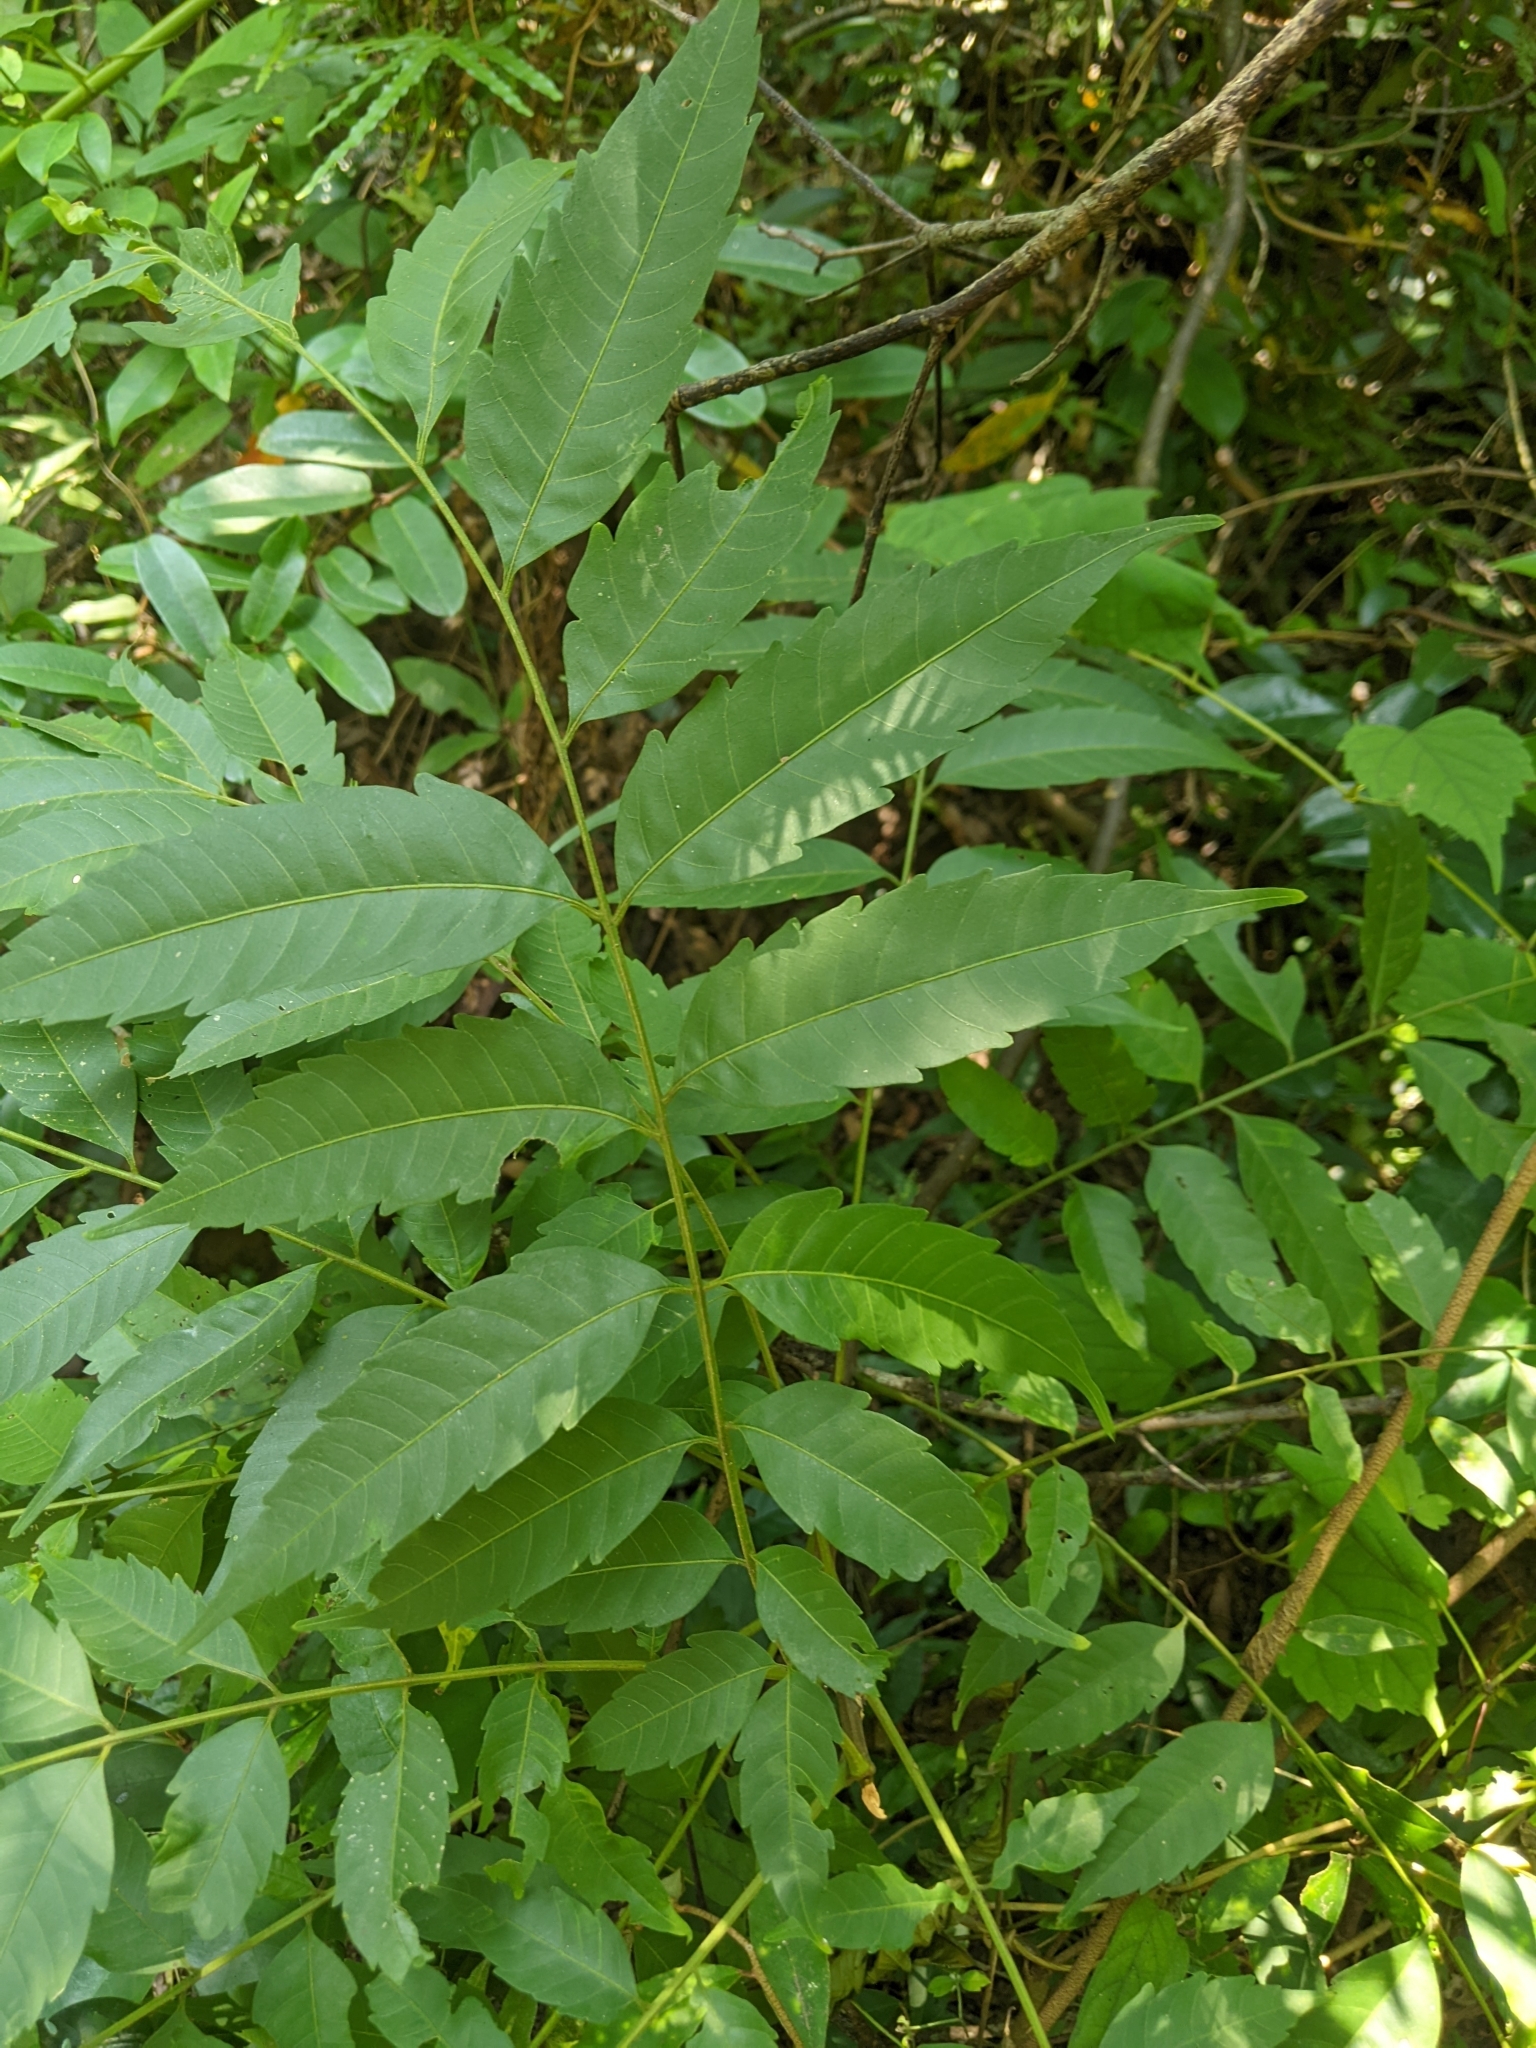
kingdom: Plantae
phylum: Tracheophyta
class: Magnoliopsida
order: Sapindales
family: Sapindaceae
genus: Eurycorymbus
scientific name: Eurycorymbus cavaleriei
